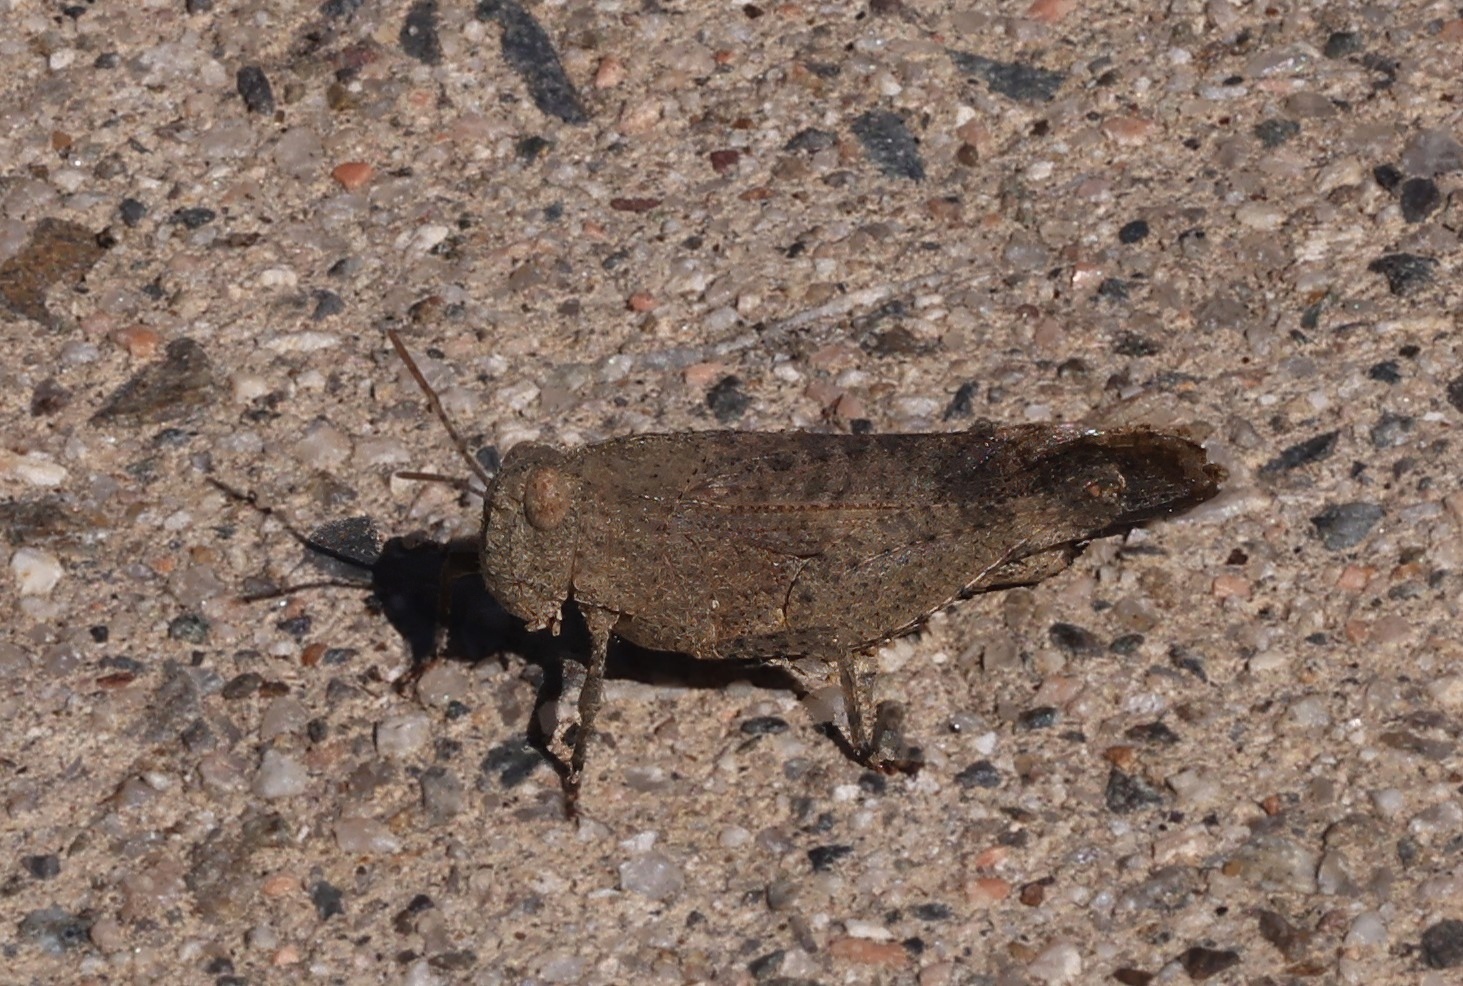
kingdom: Animalia
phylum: Arthropoda
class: Insecta
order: Orthoptera
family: Acrididae
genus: Lactista
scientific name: Lactista gibbosus
